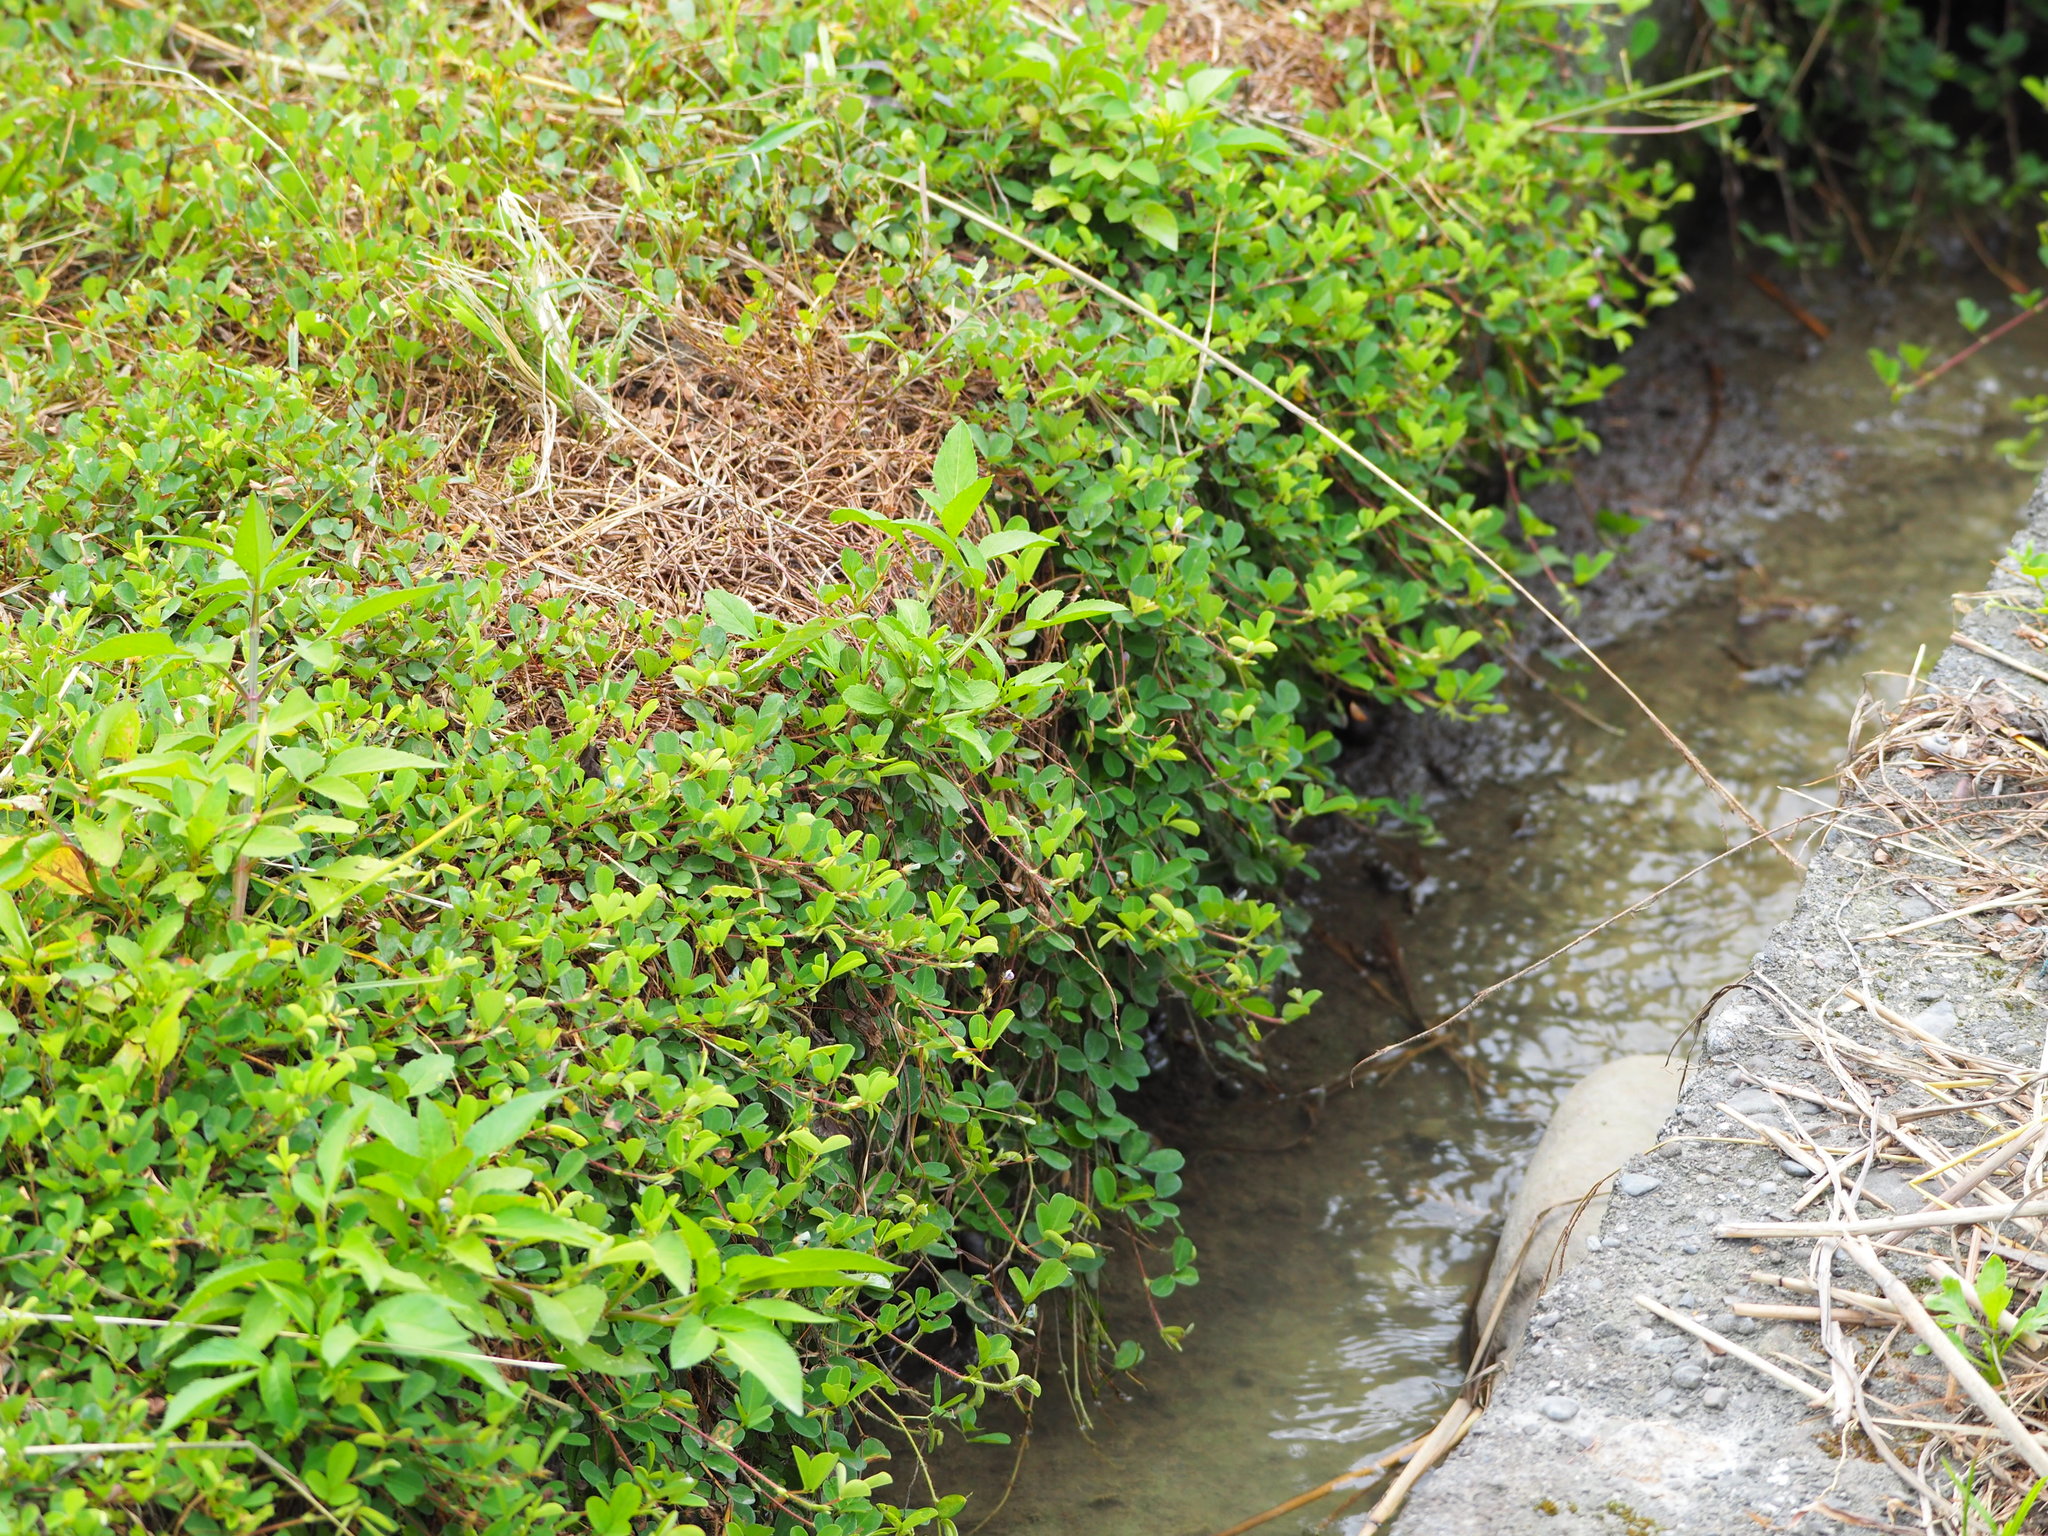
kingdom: Plantae
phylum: Tracheophyta
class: Magnoliopsida
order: Fabales
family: Fabaceae
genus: Grona
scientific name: Grona heterophylla
